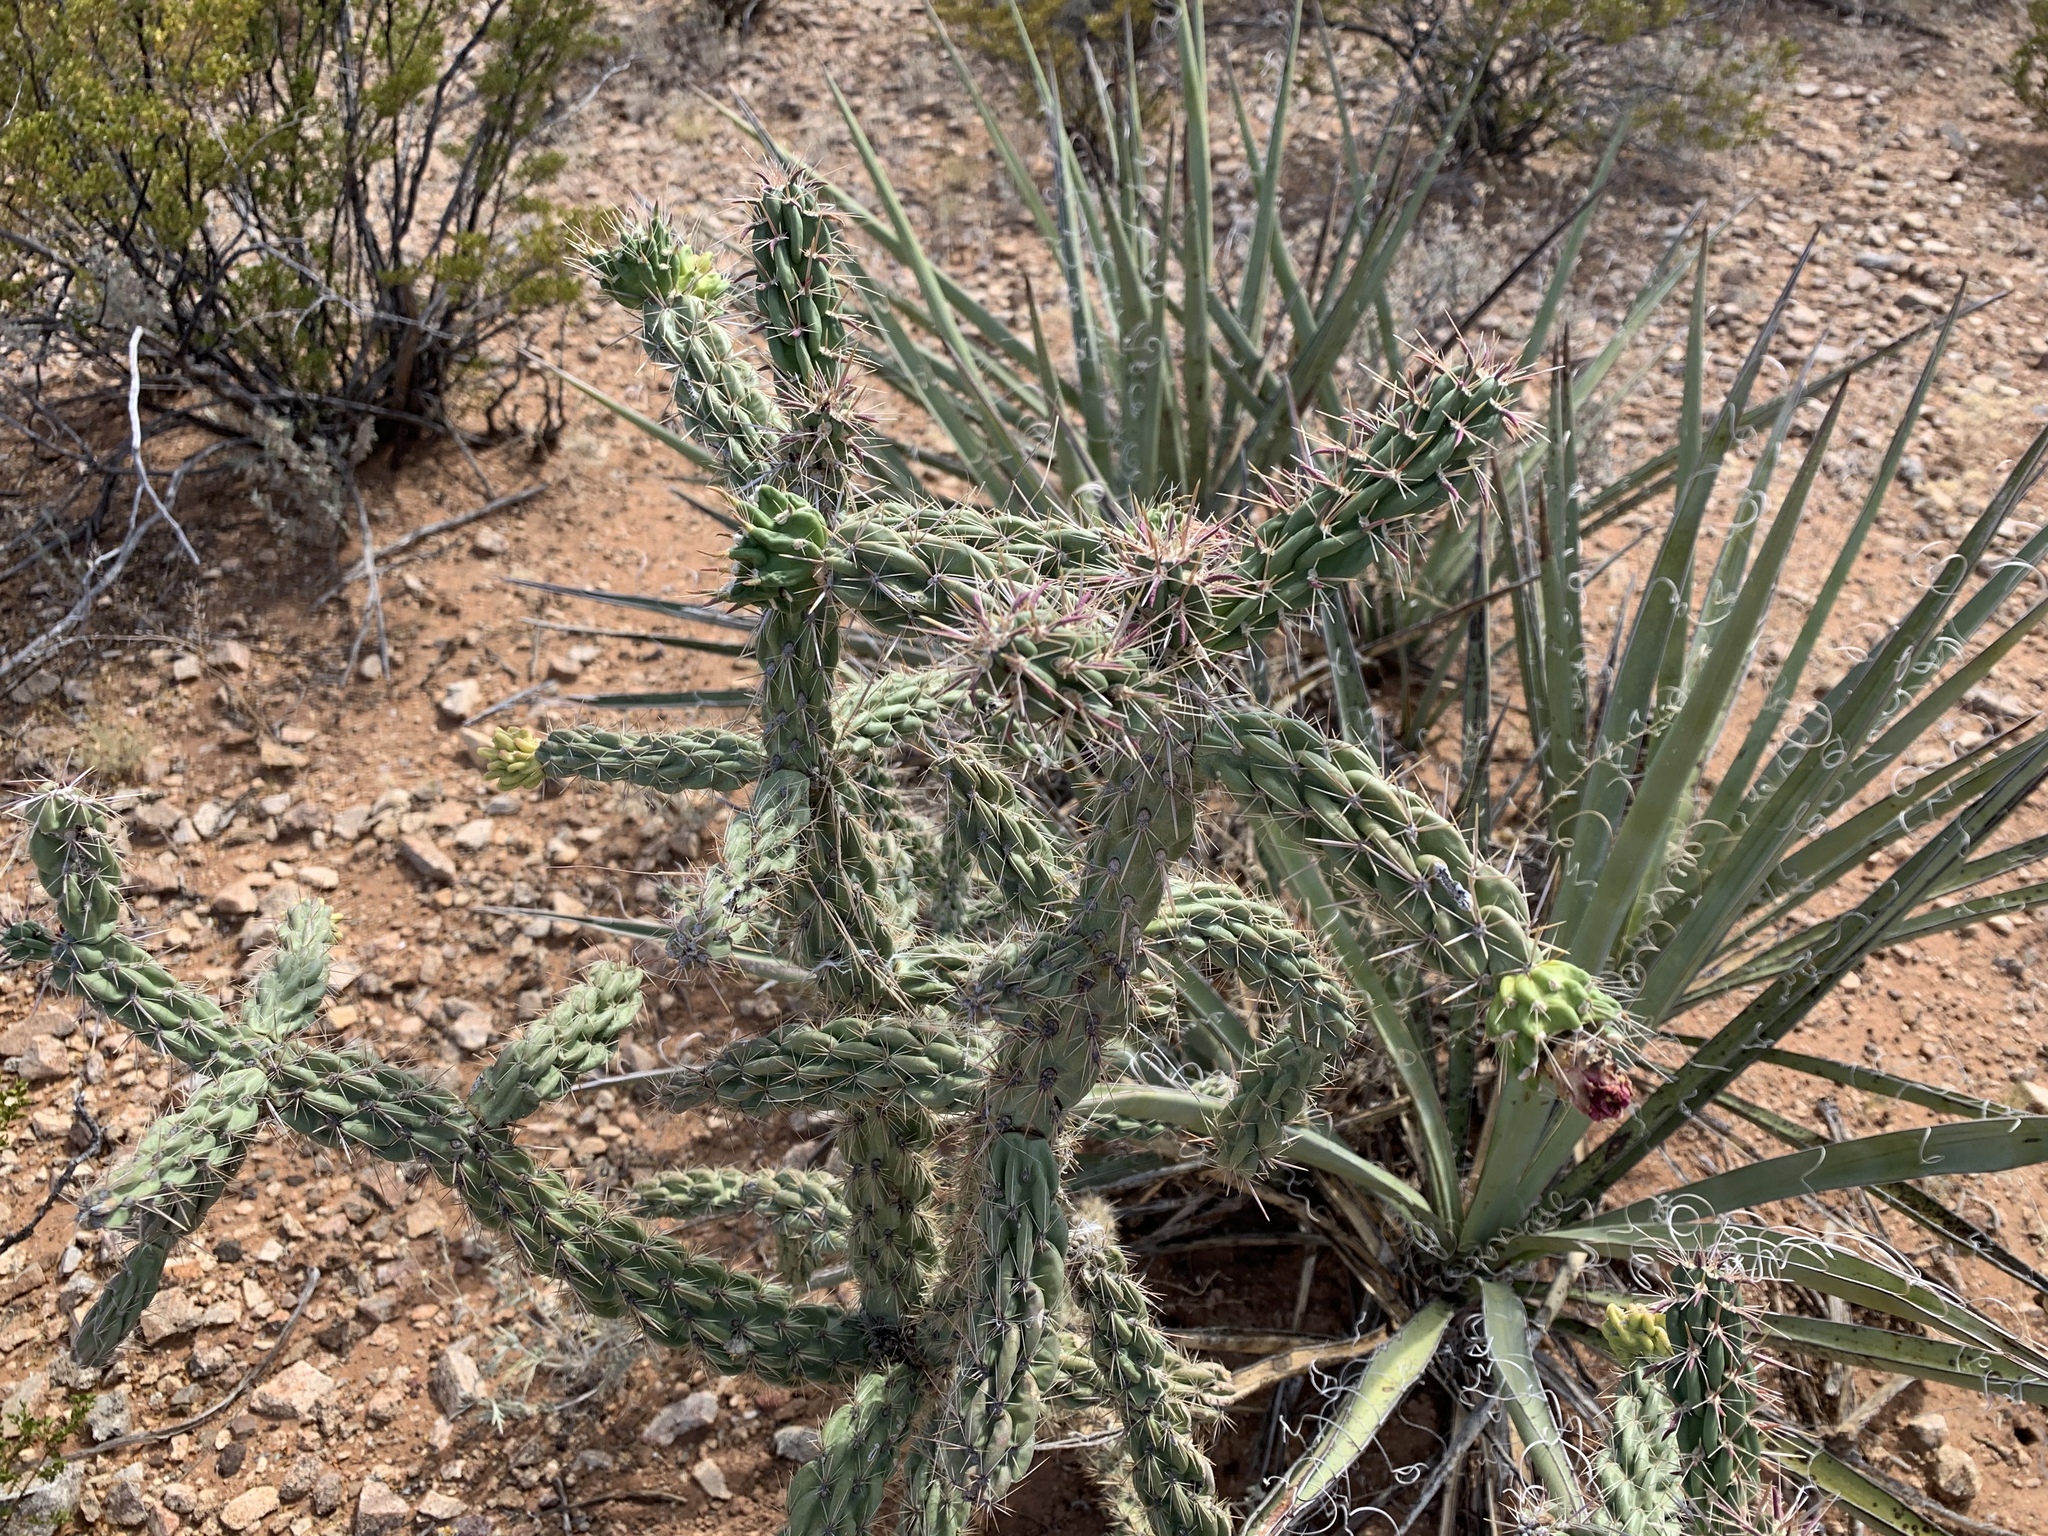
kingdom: Plantae
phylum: Tracheophyta
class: Magnoliopsida
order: Caryophyllales
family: Cactaceae
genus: Cylindropuntia
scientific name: Cylindropuntia imbricata
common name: Candelabrum cactus
